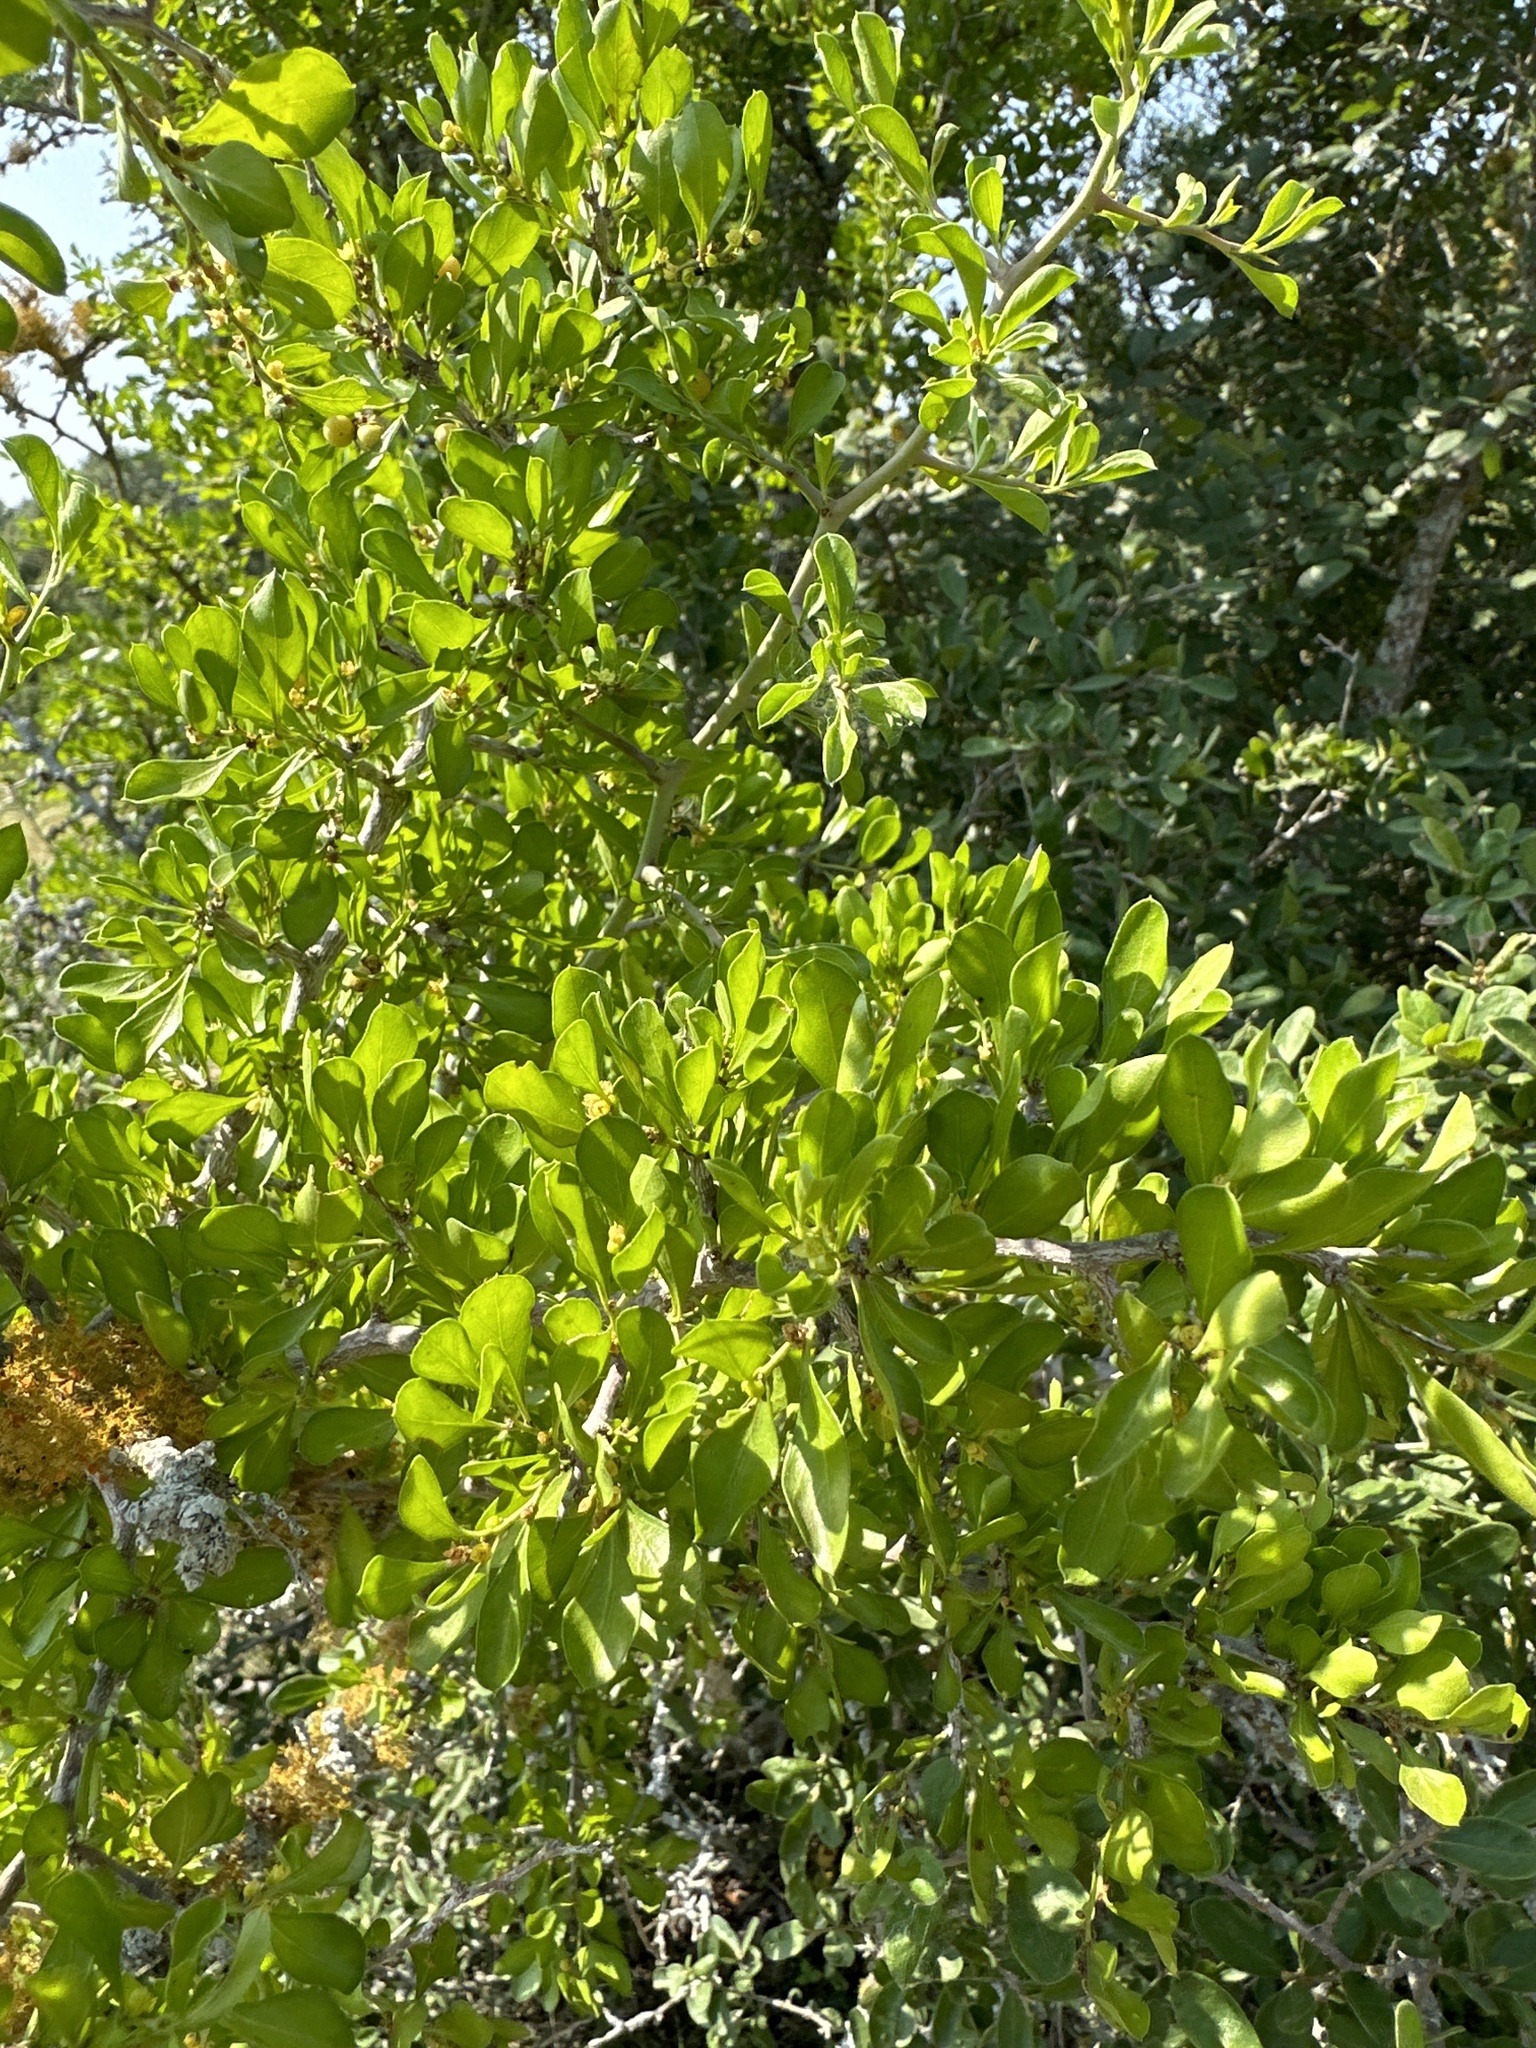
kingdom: Plantae
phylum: Tracheophyta
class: Magnoliopsida
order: Rosales
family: Rhamnaceae
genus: Condalia
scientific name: Condalia hookeri
